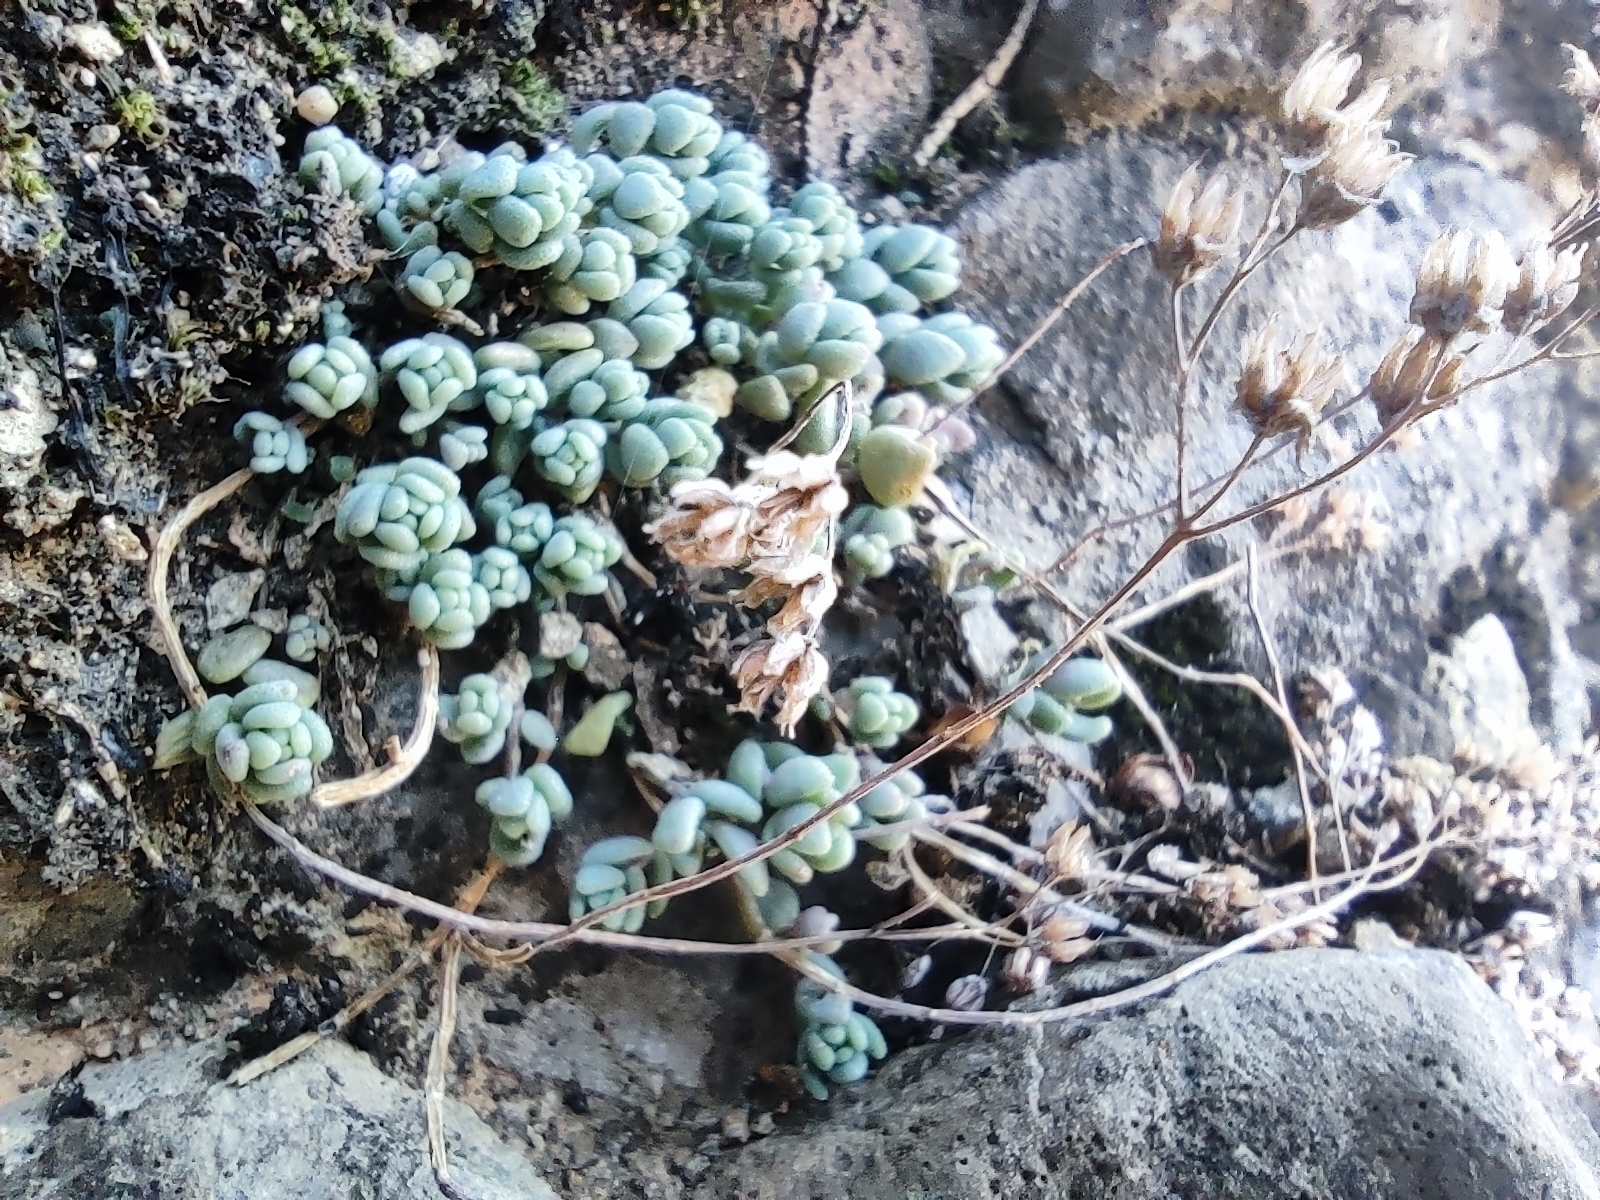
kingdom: Plantae
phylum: Tracheophyta
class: Magnoliopsida
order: Saxifragales
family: Crassulaceae
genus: Sedum
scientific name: Sedum dasyphyllum
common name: Thick-leaf stonecrop
